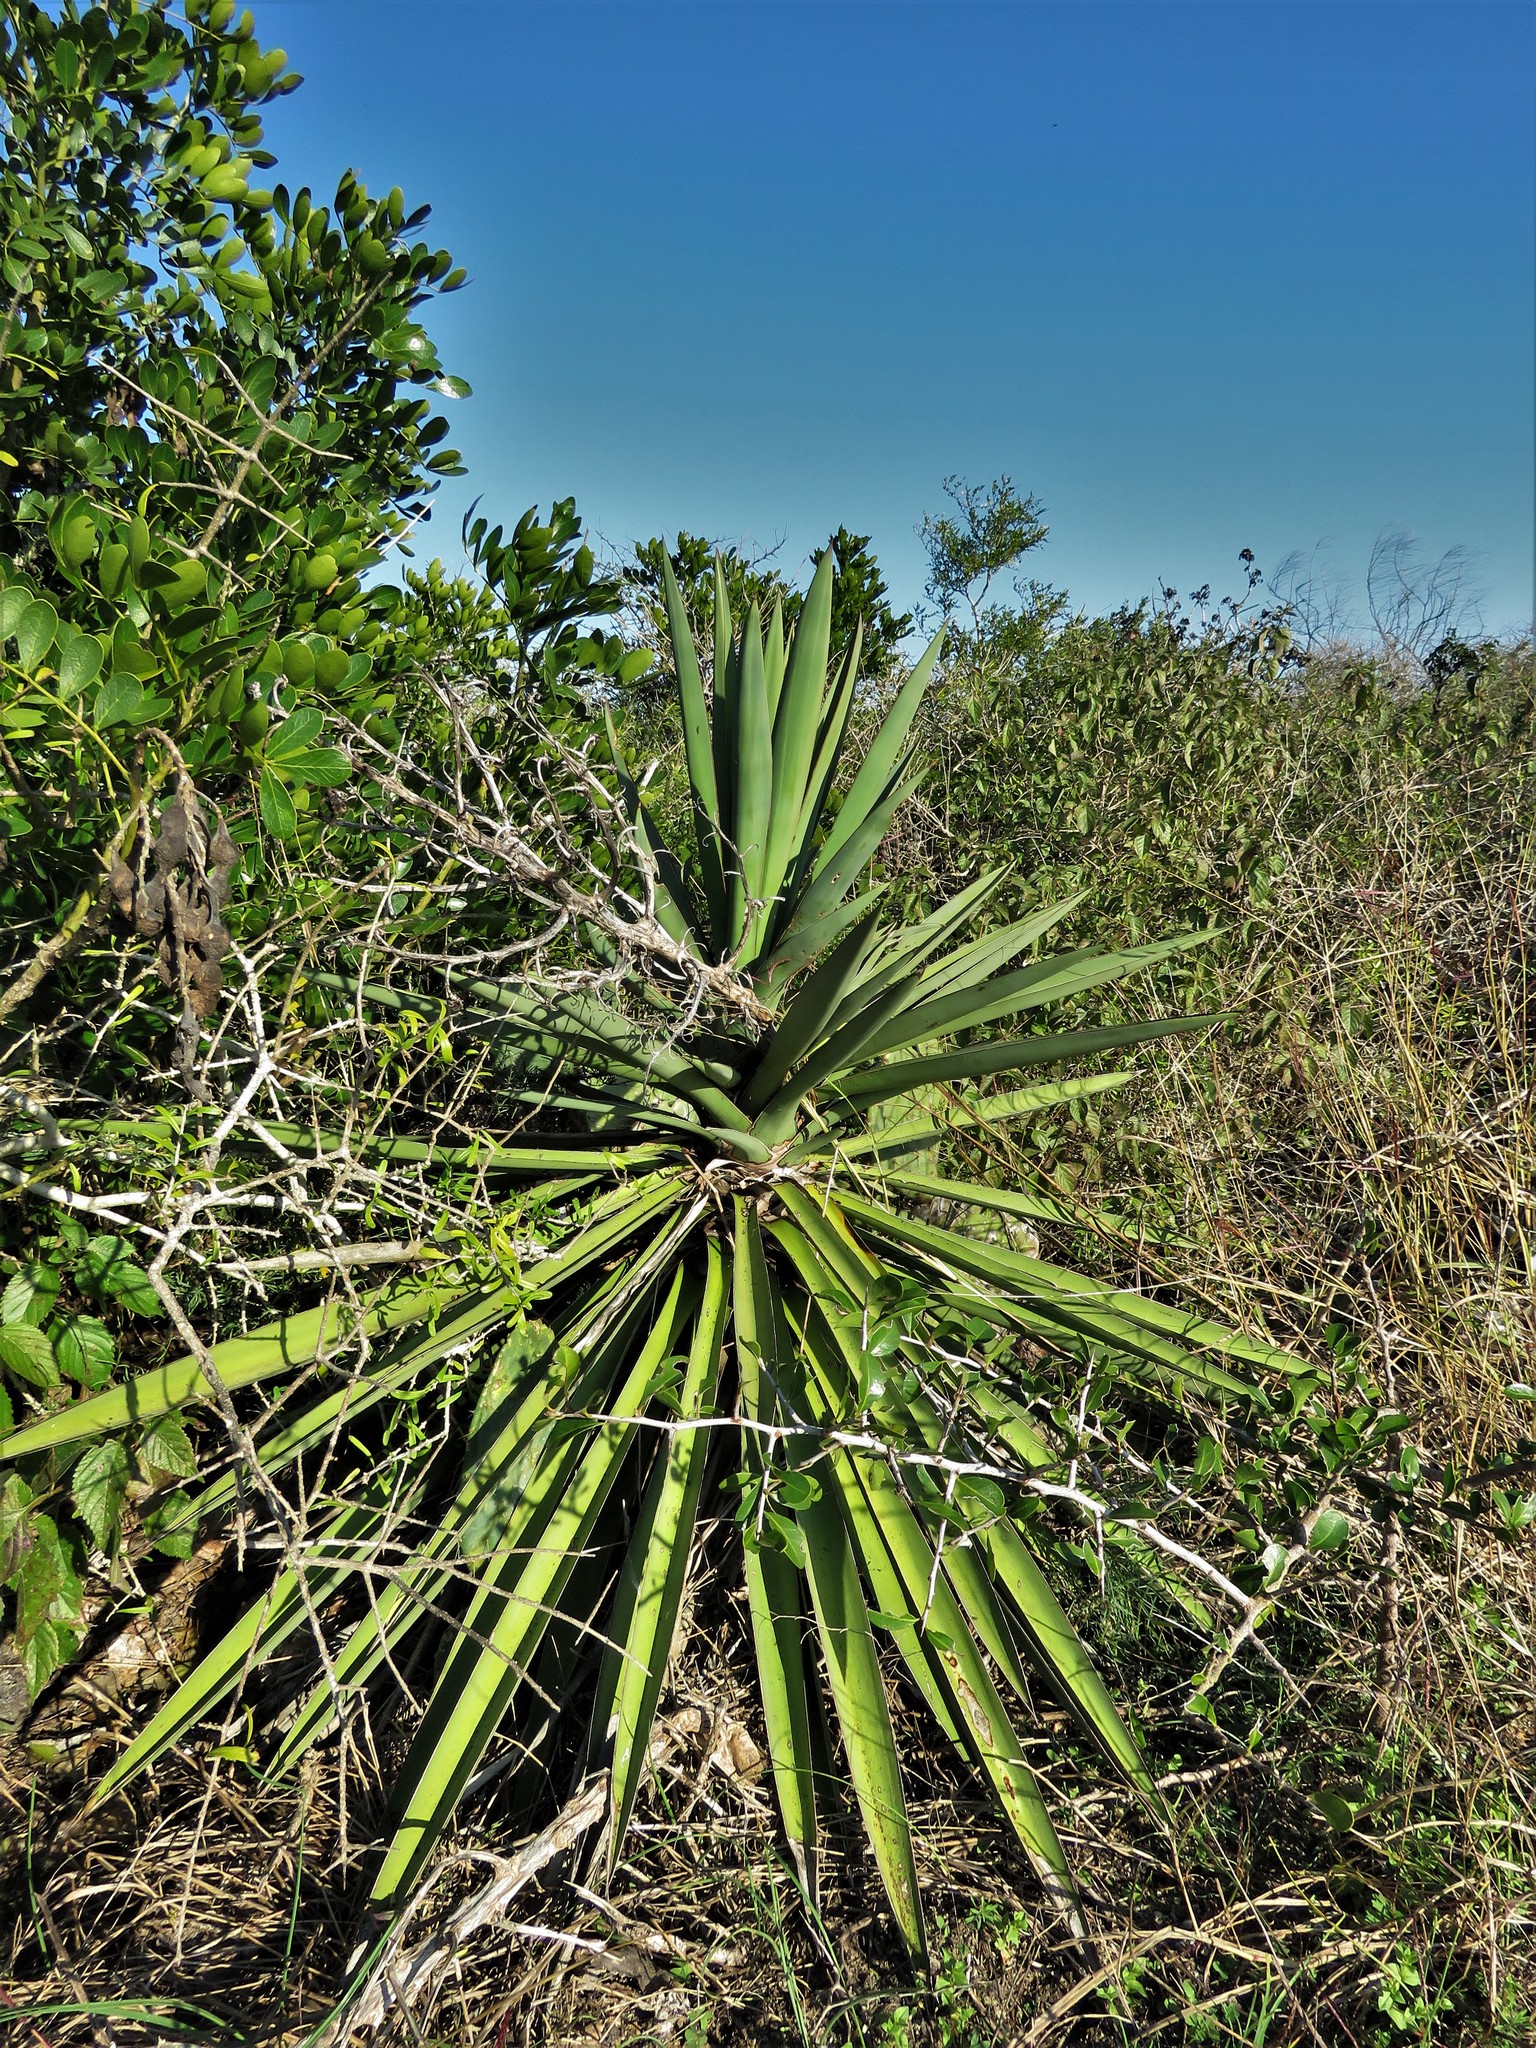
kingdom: Plantae
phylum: Tracheophyta
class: Liliopsida
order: Asparagales
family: Asparagaceae
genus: Yucca
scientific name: Yucca treculiana
